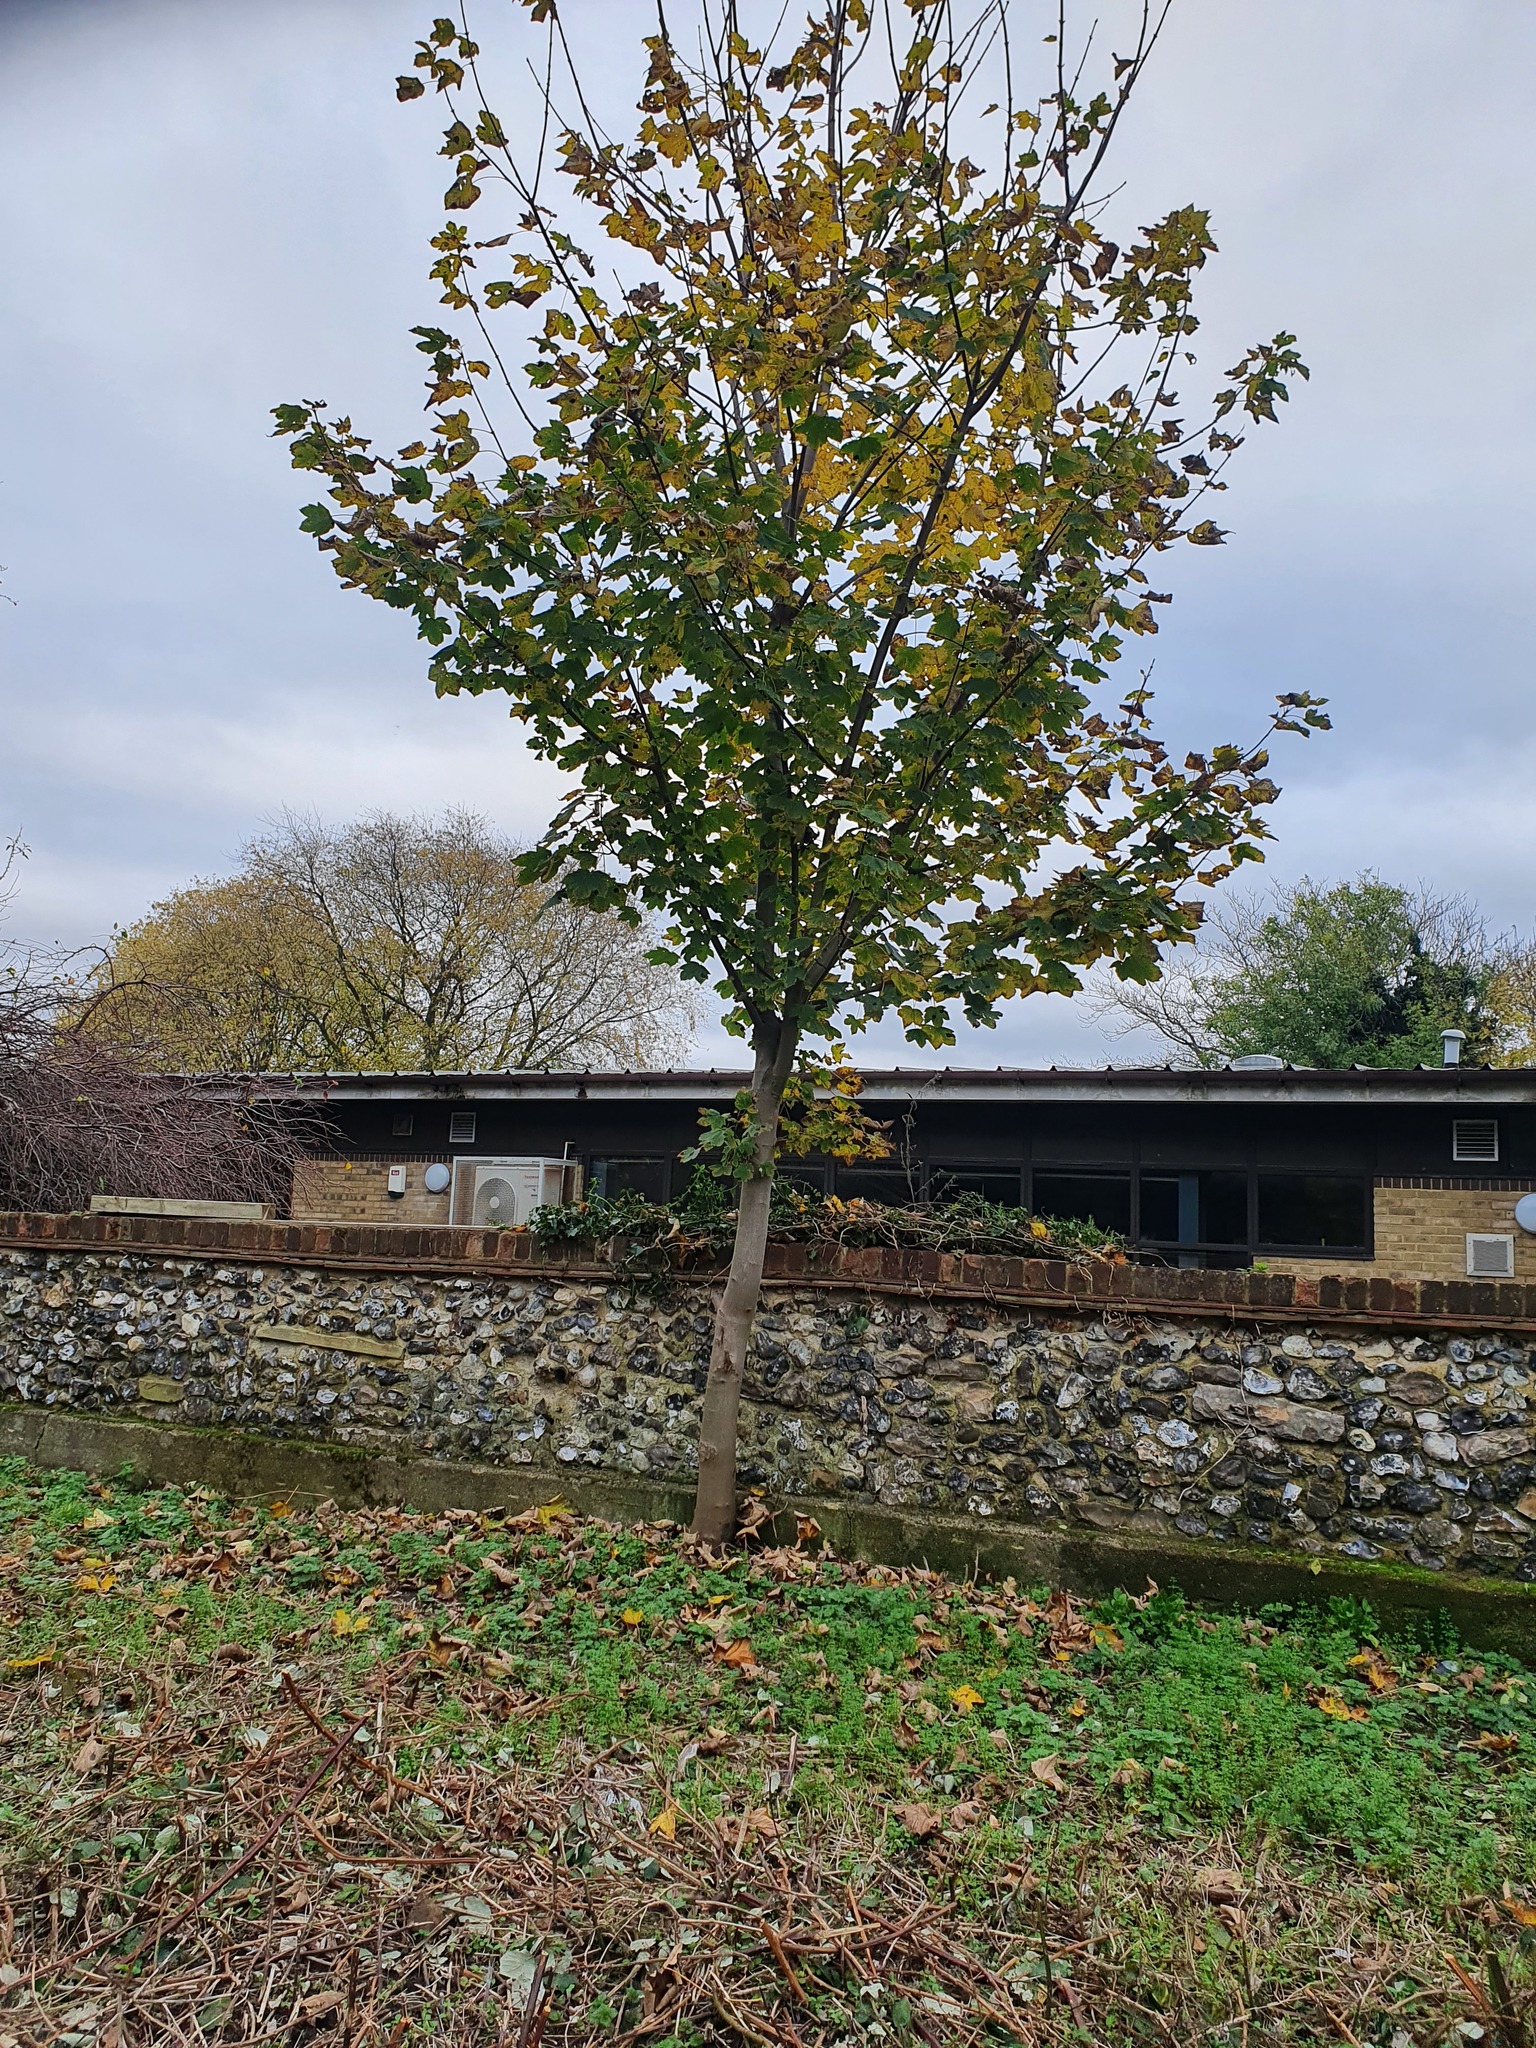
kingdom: Plantae
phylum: Tracheophyta
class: Magnoliopsida
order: Sapindales
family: Sapindaceae
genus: Acer
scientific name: Acer pseudoplatanus
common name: Sycamore
